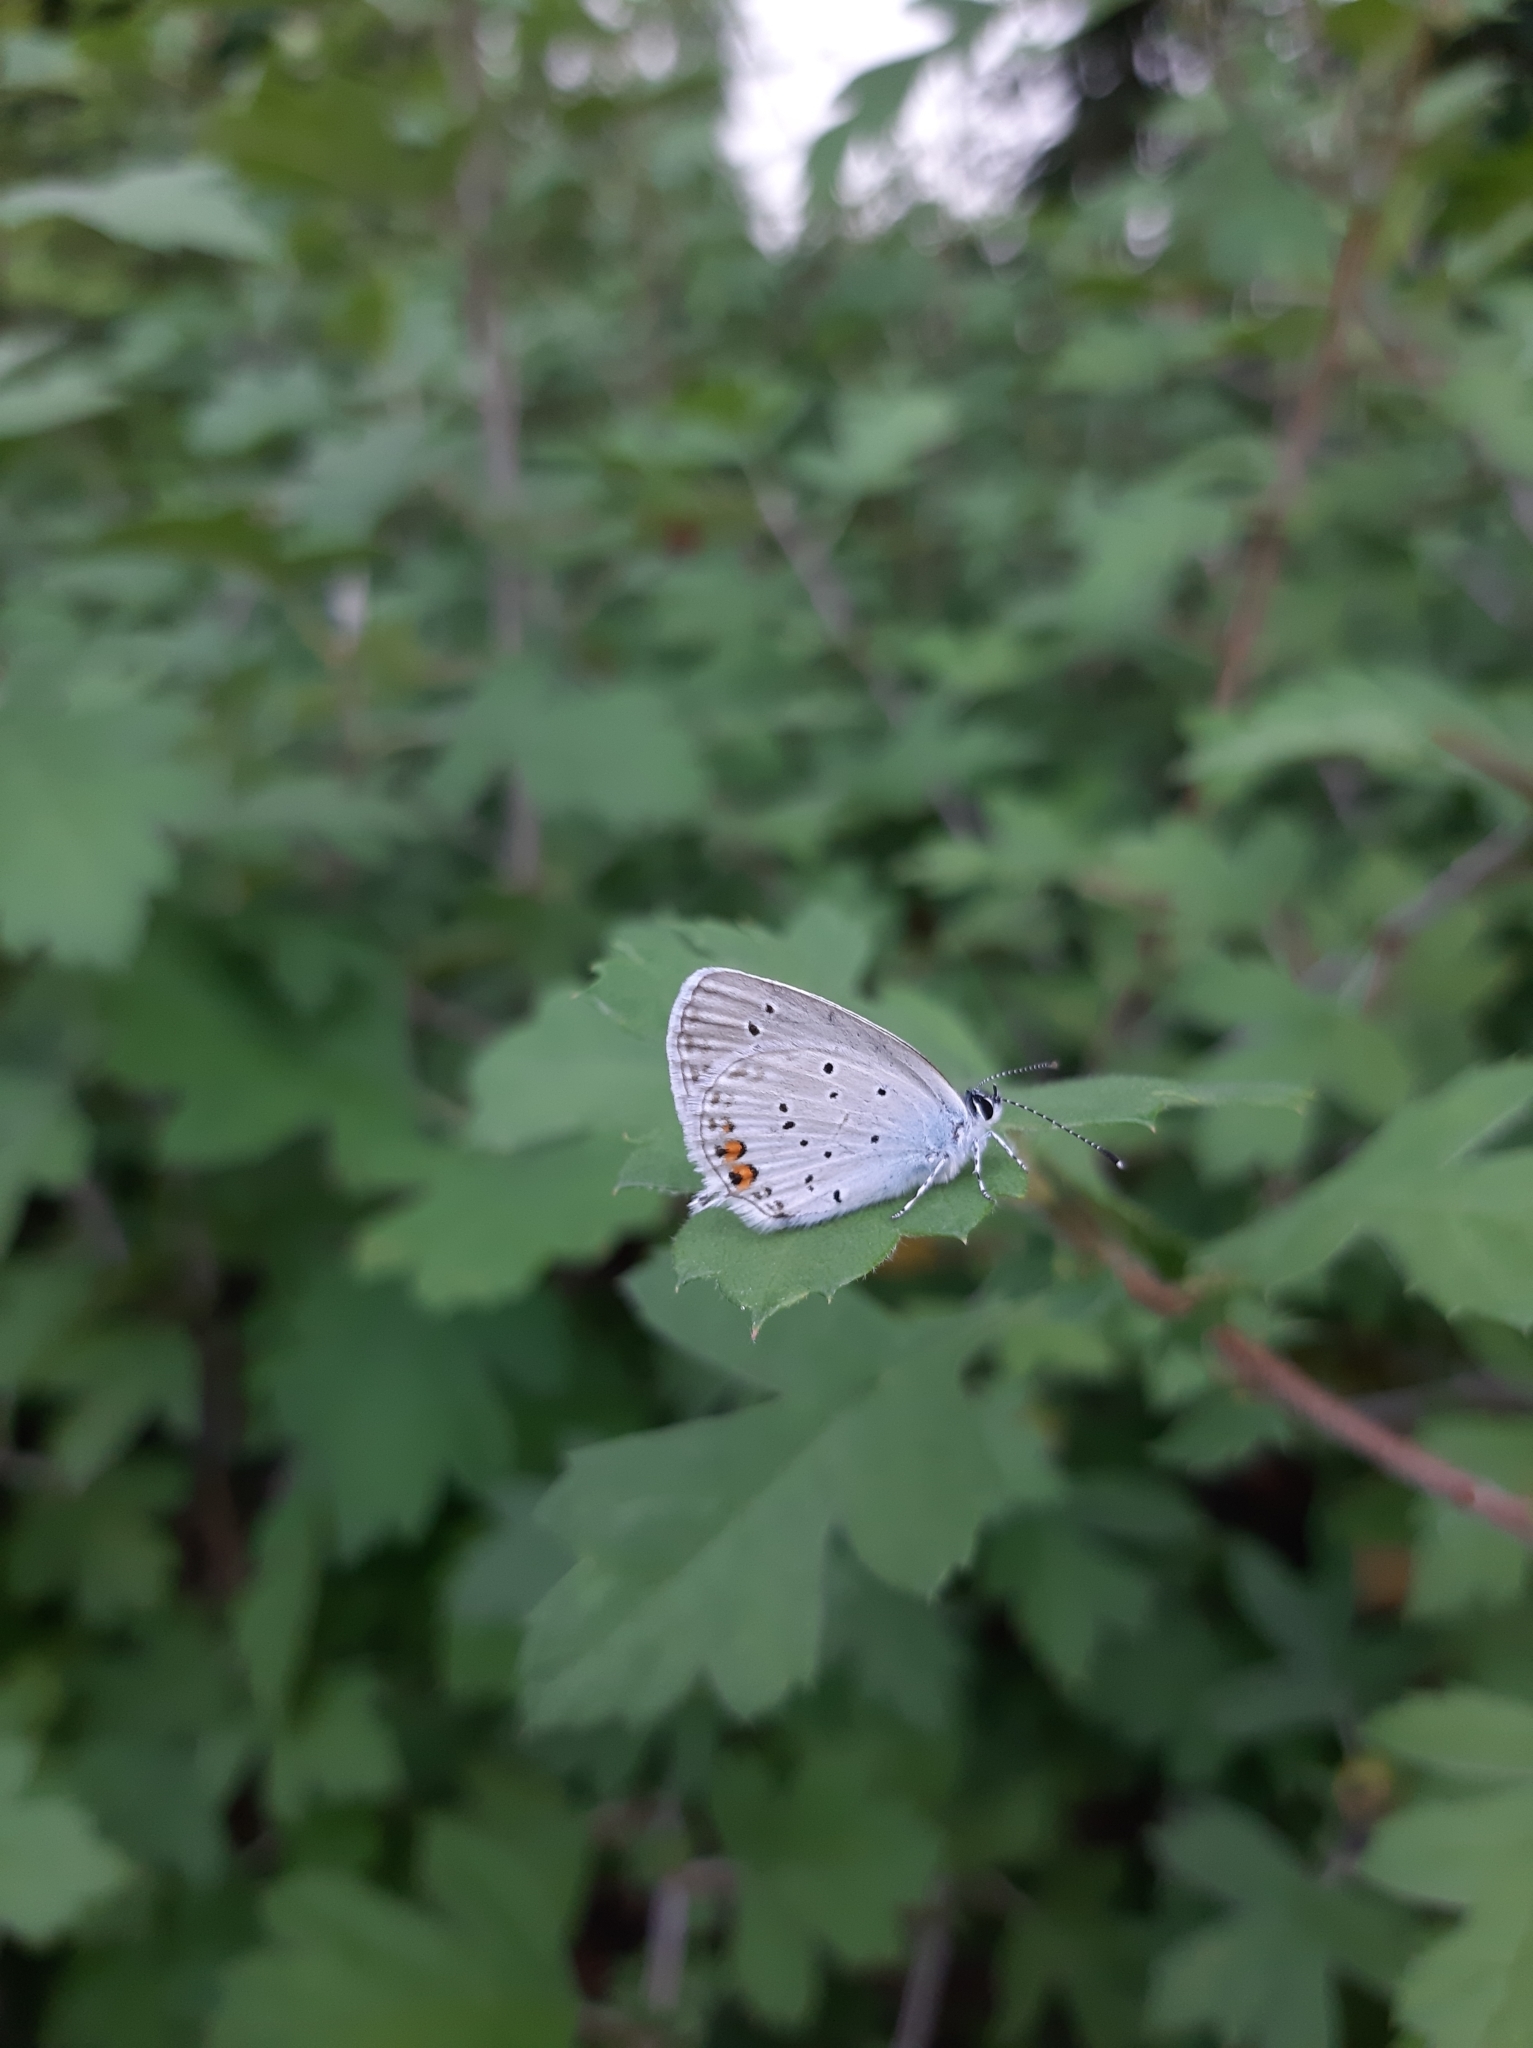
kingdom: Animalia
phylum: Arthropoda
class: Insecta
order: Lepidoptera
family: Lycaenidae
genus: Elkalyce
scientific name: Elkalyce argiades
